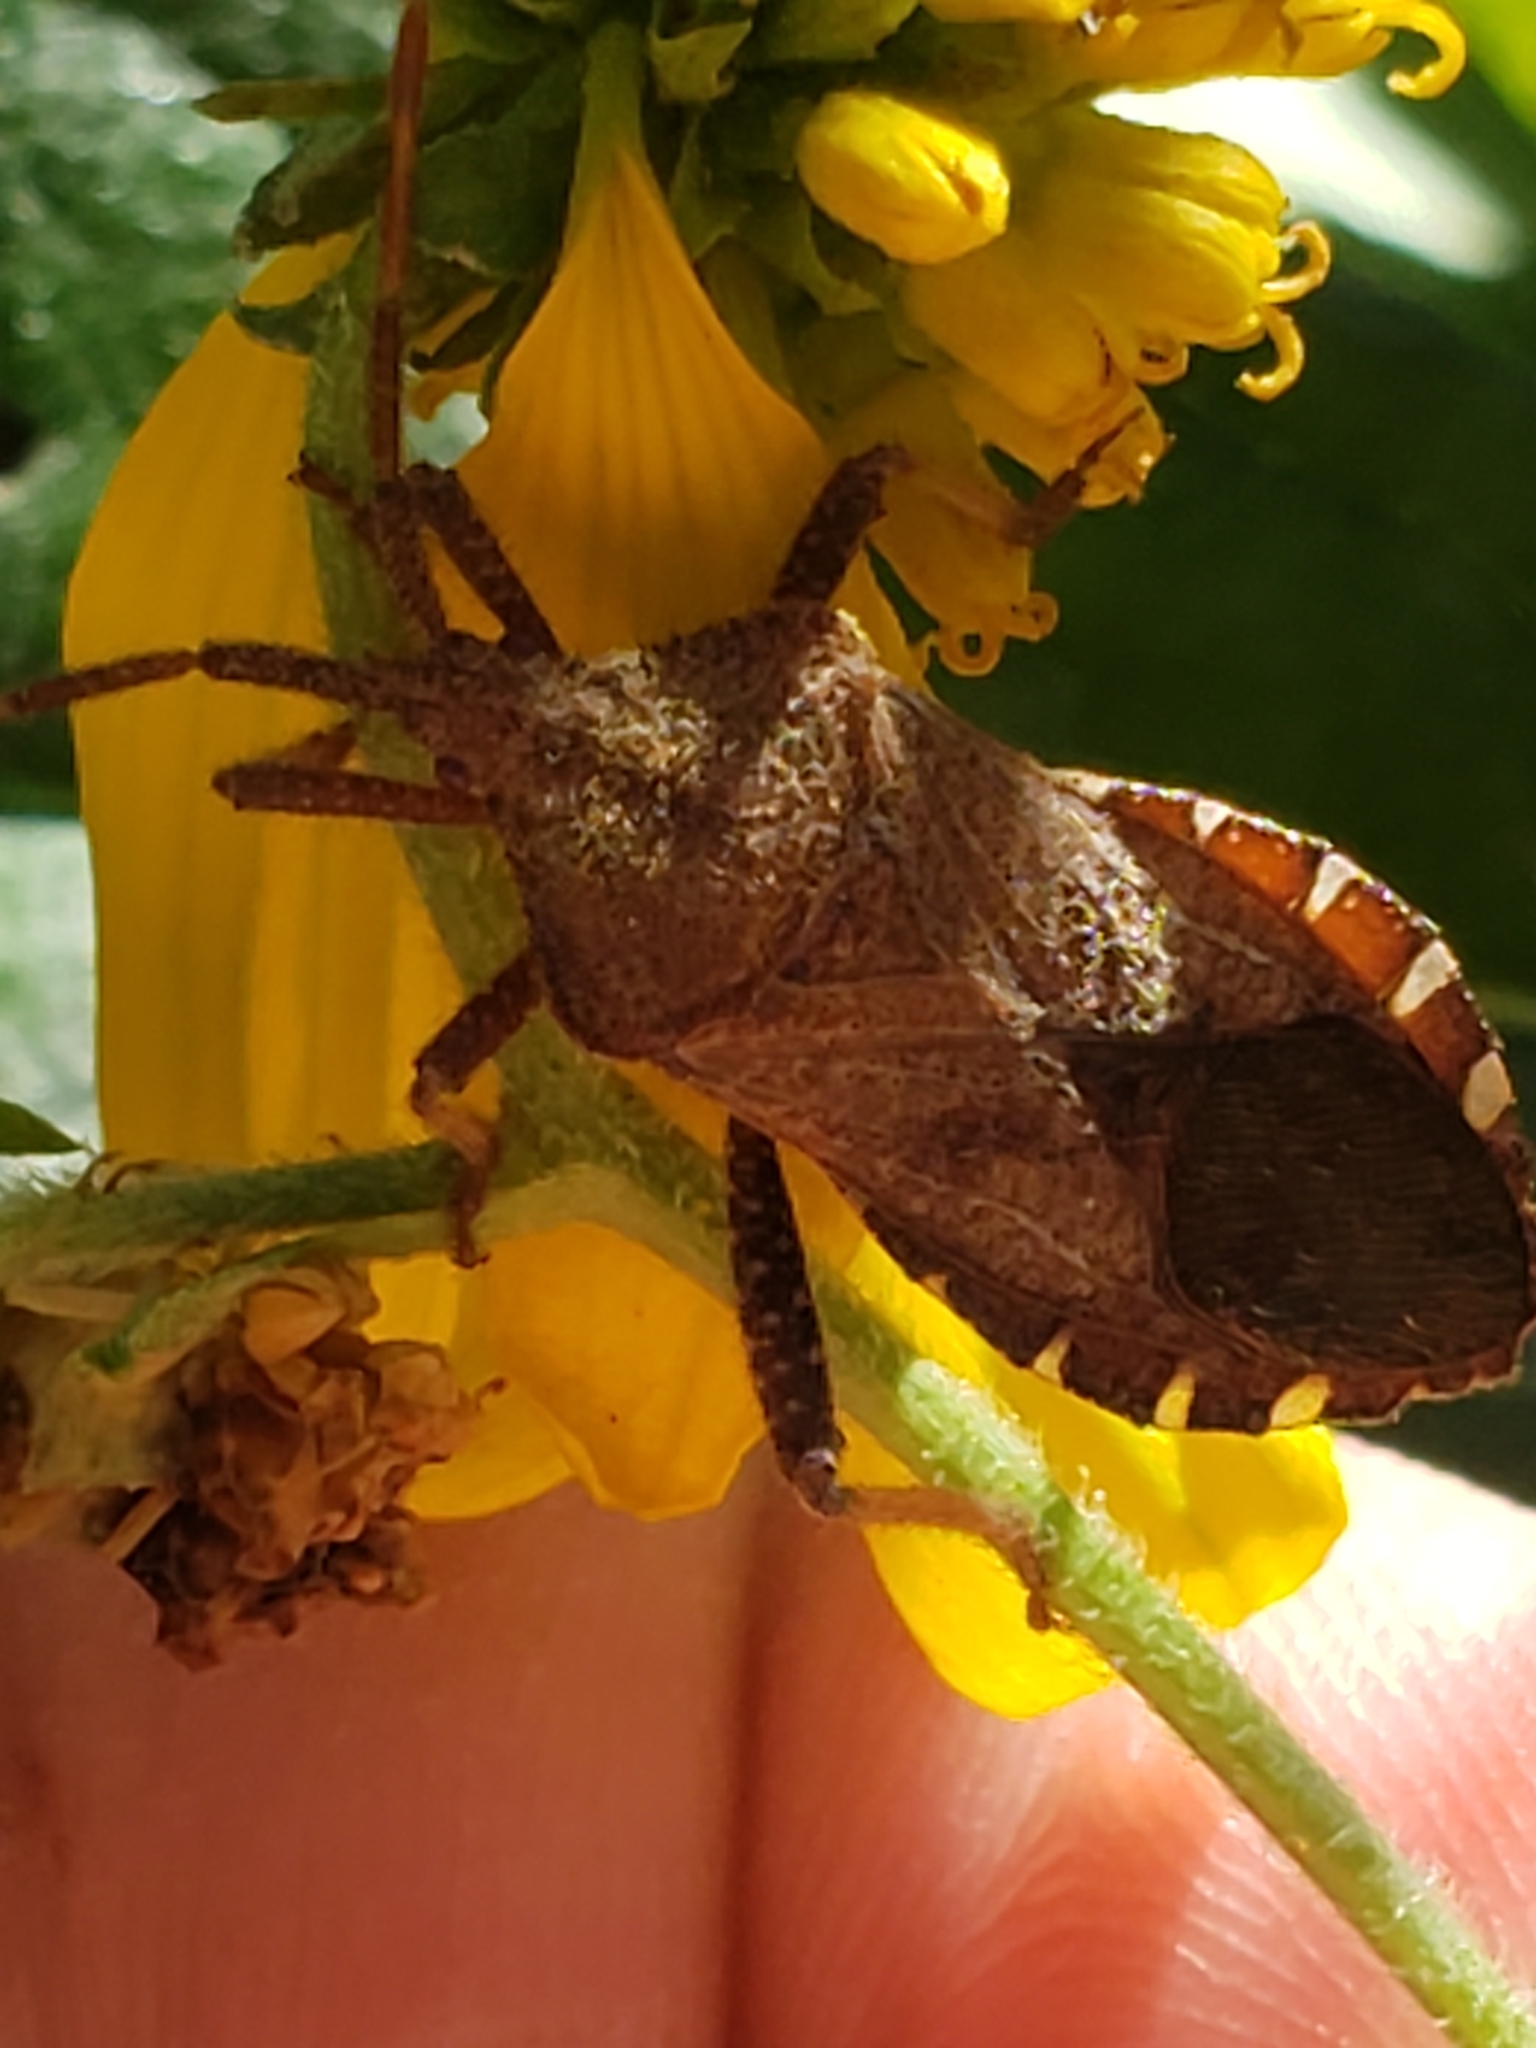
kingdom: Animalia
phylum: Arthropoda
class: Insecta
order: Hemiptera
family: Coreidae
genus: Piezogaster
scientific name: Piezogaster calcarator
